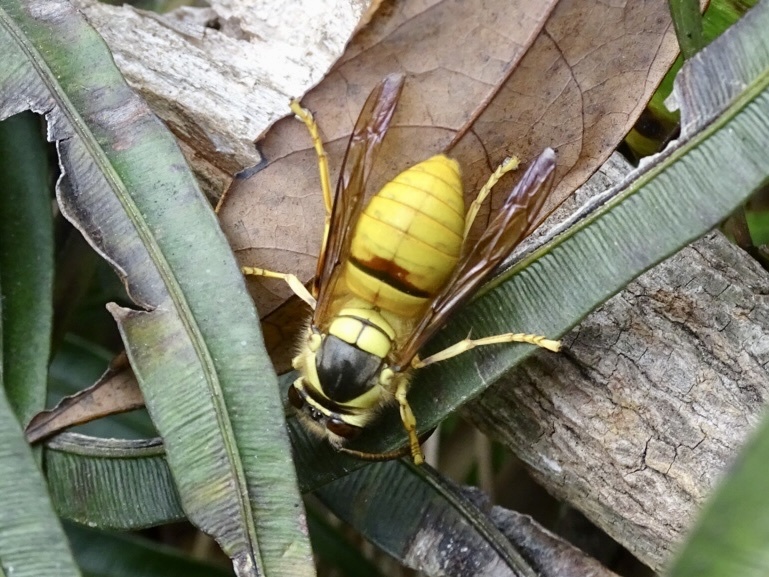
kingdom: Animalia
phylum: Arthropoda
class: Insecta
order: Hymenoptera
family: Vespidae
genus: Vespa
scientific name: Vespa bicolor
